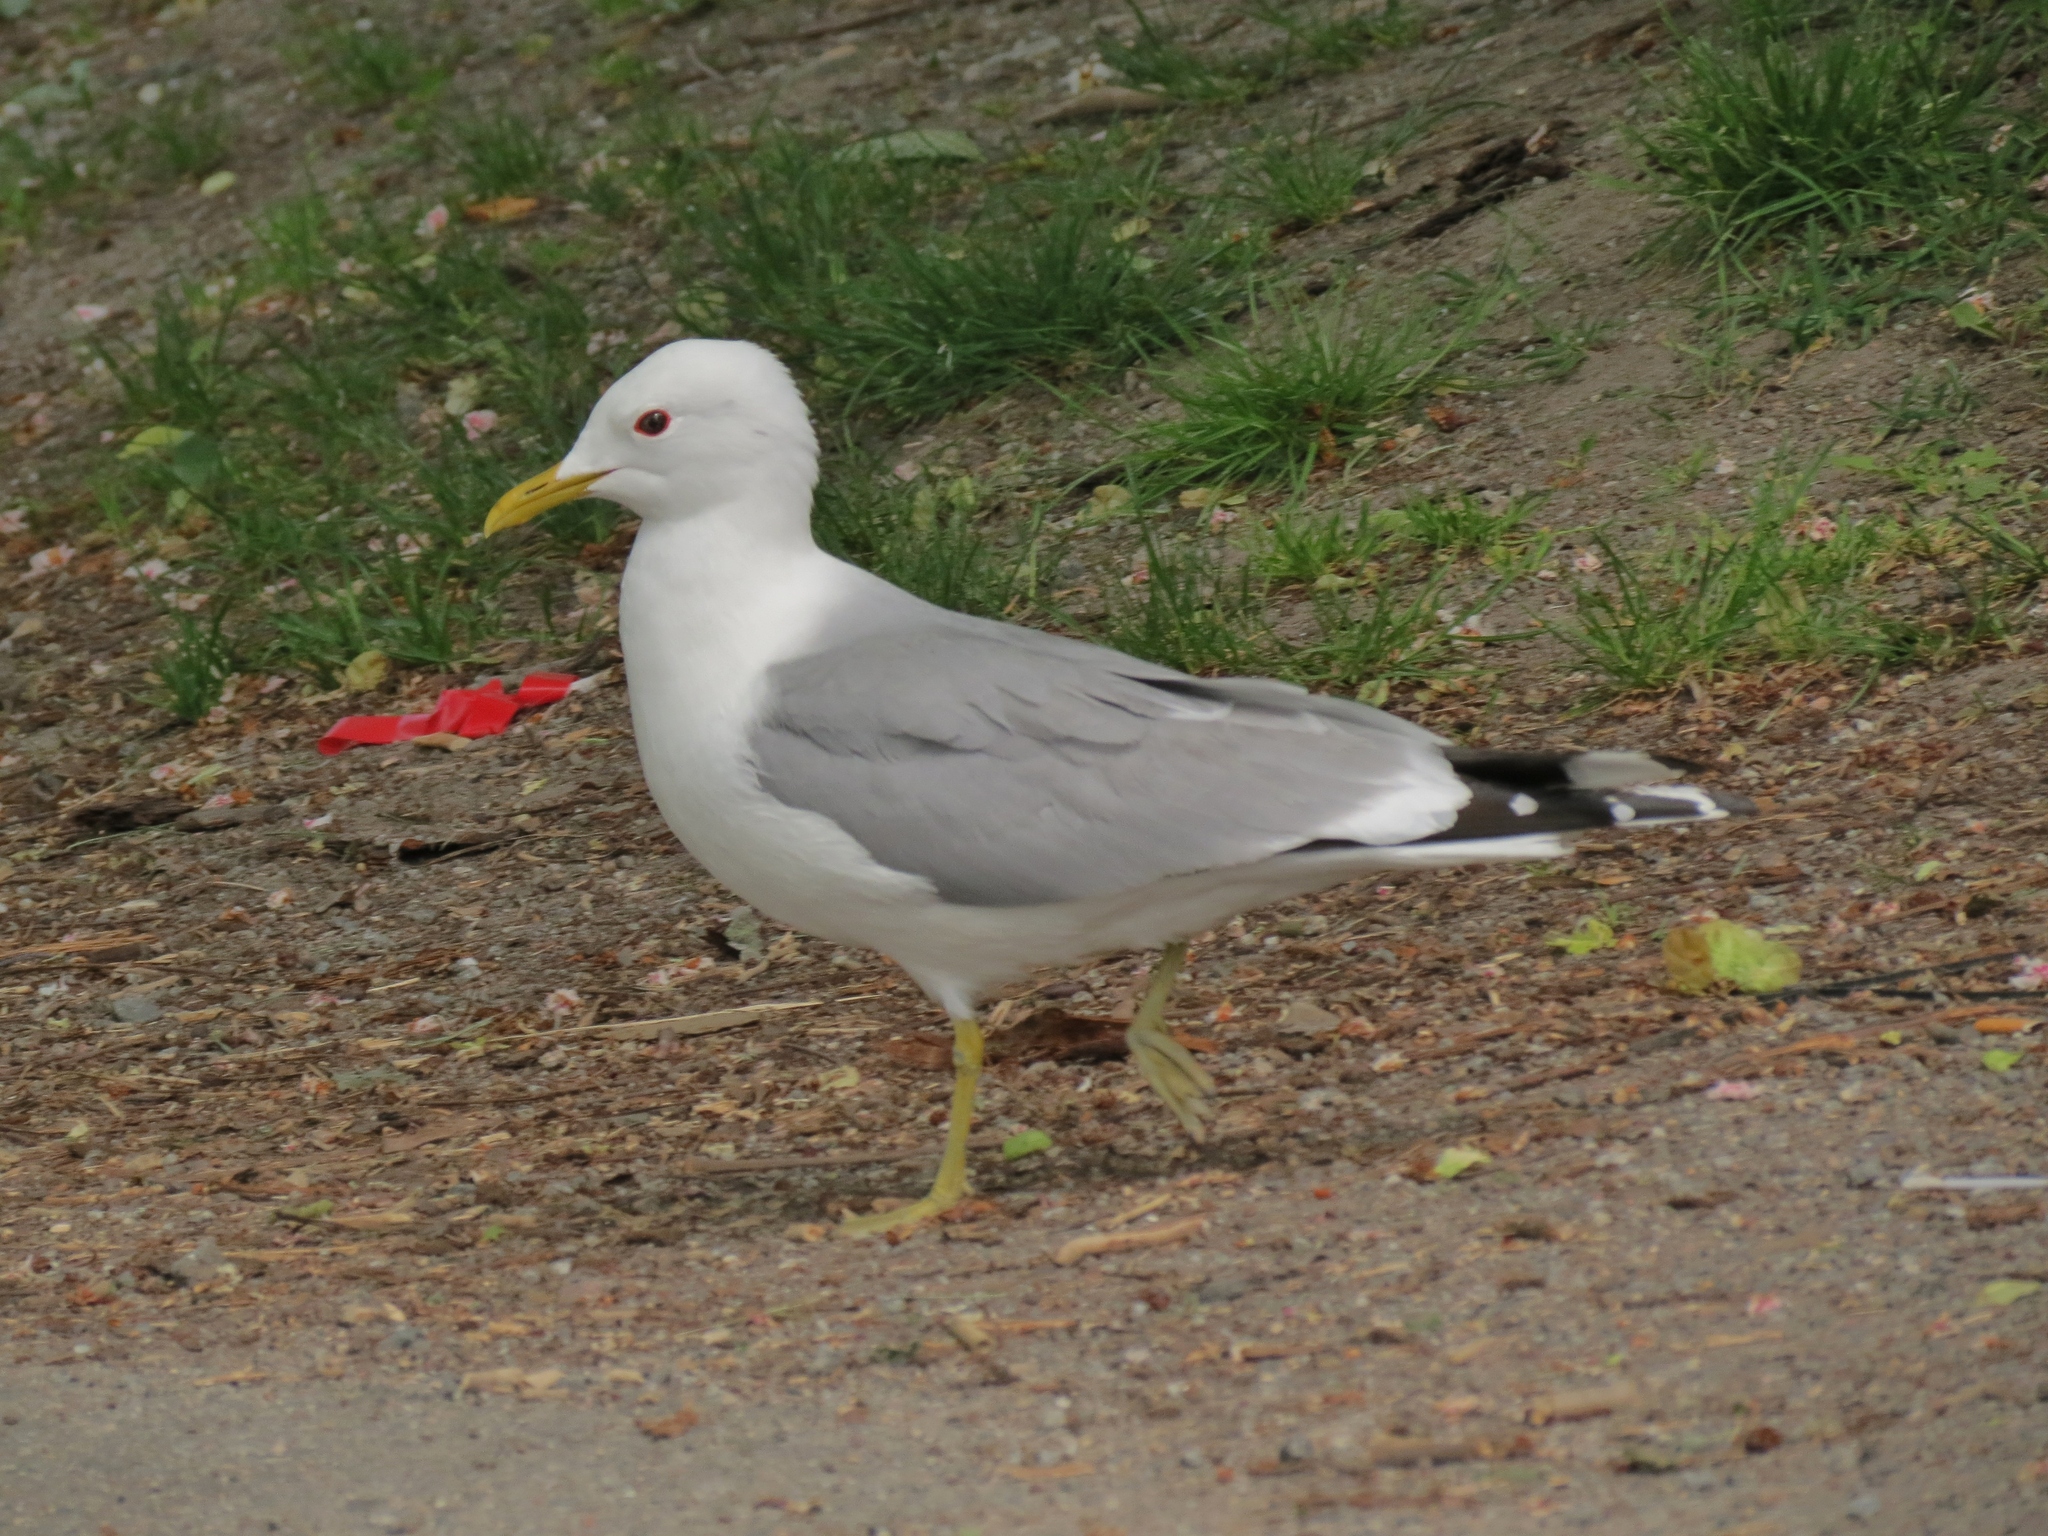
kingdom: Animalia
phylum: Chordata
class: Aves
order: Charadriiformes
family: Laridae
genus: Larus
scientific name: Larus canus
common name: Mew gull
